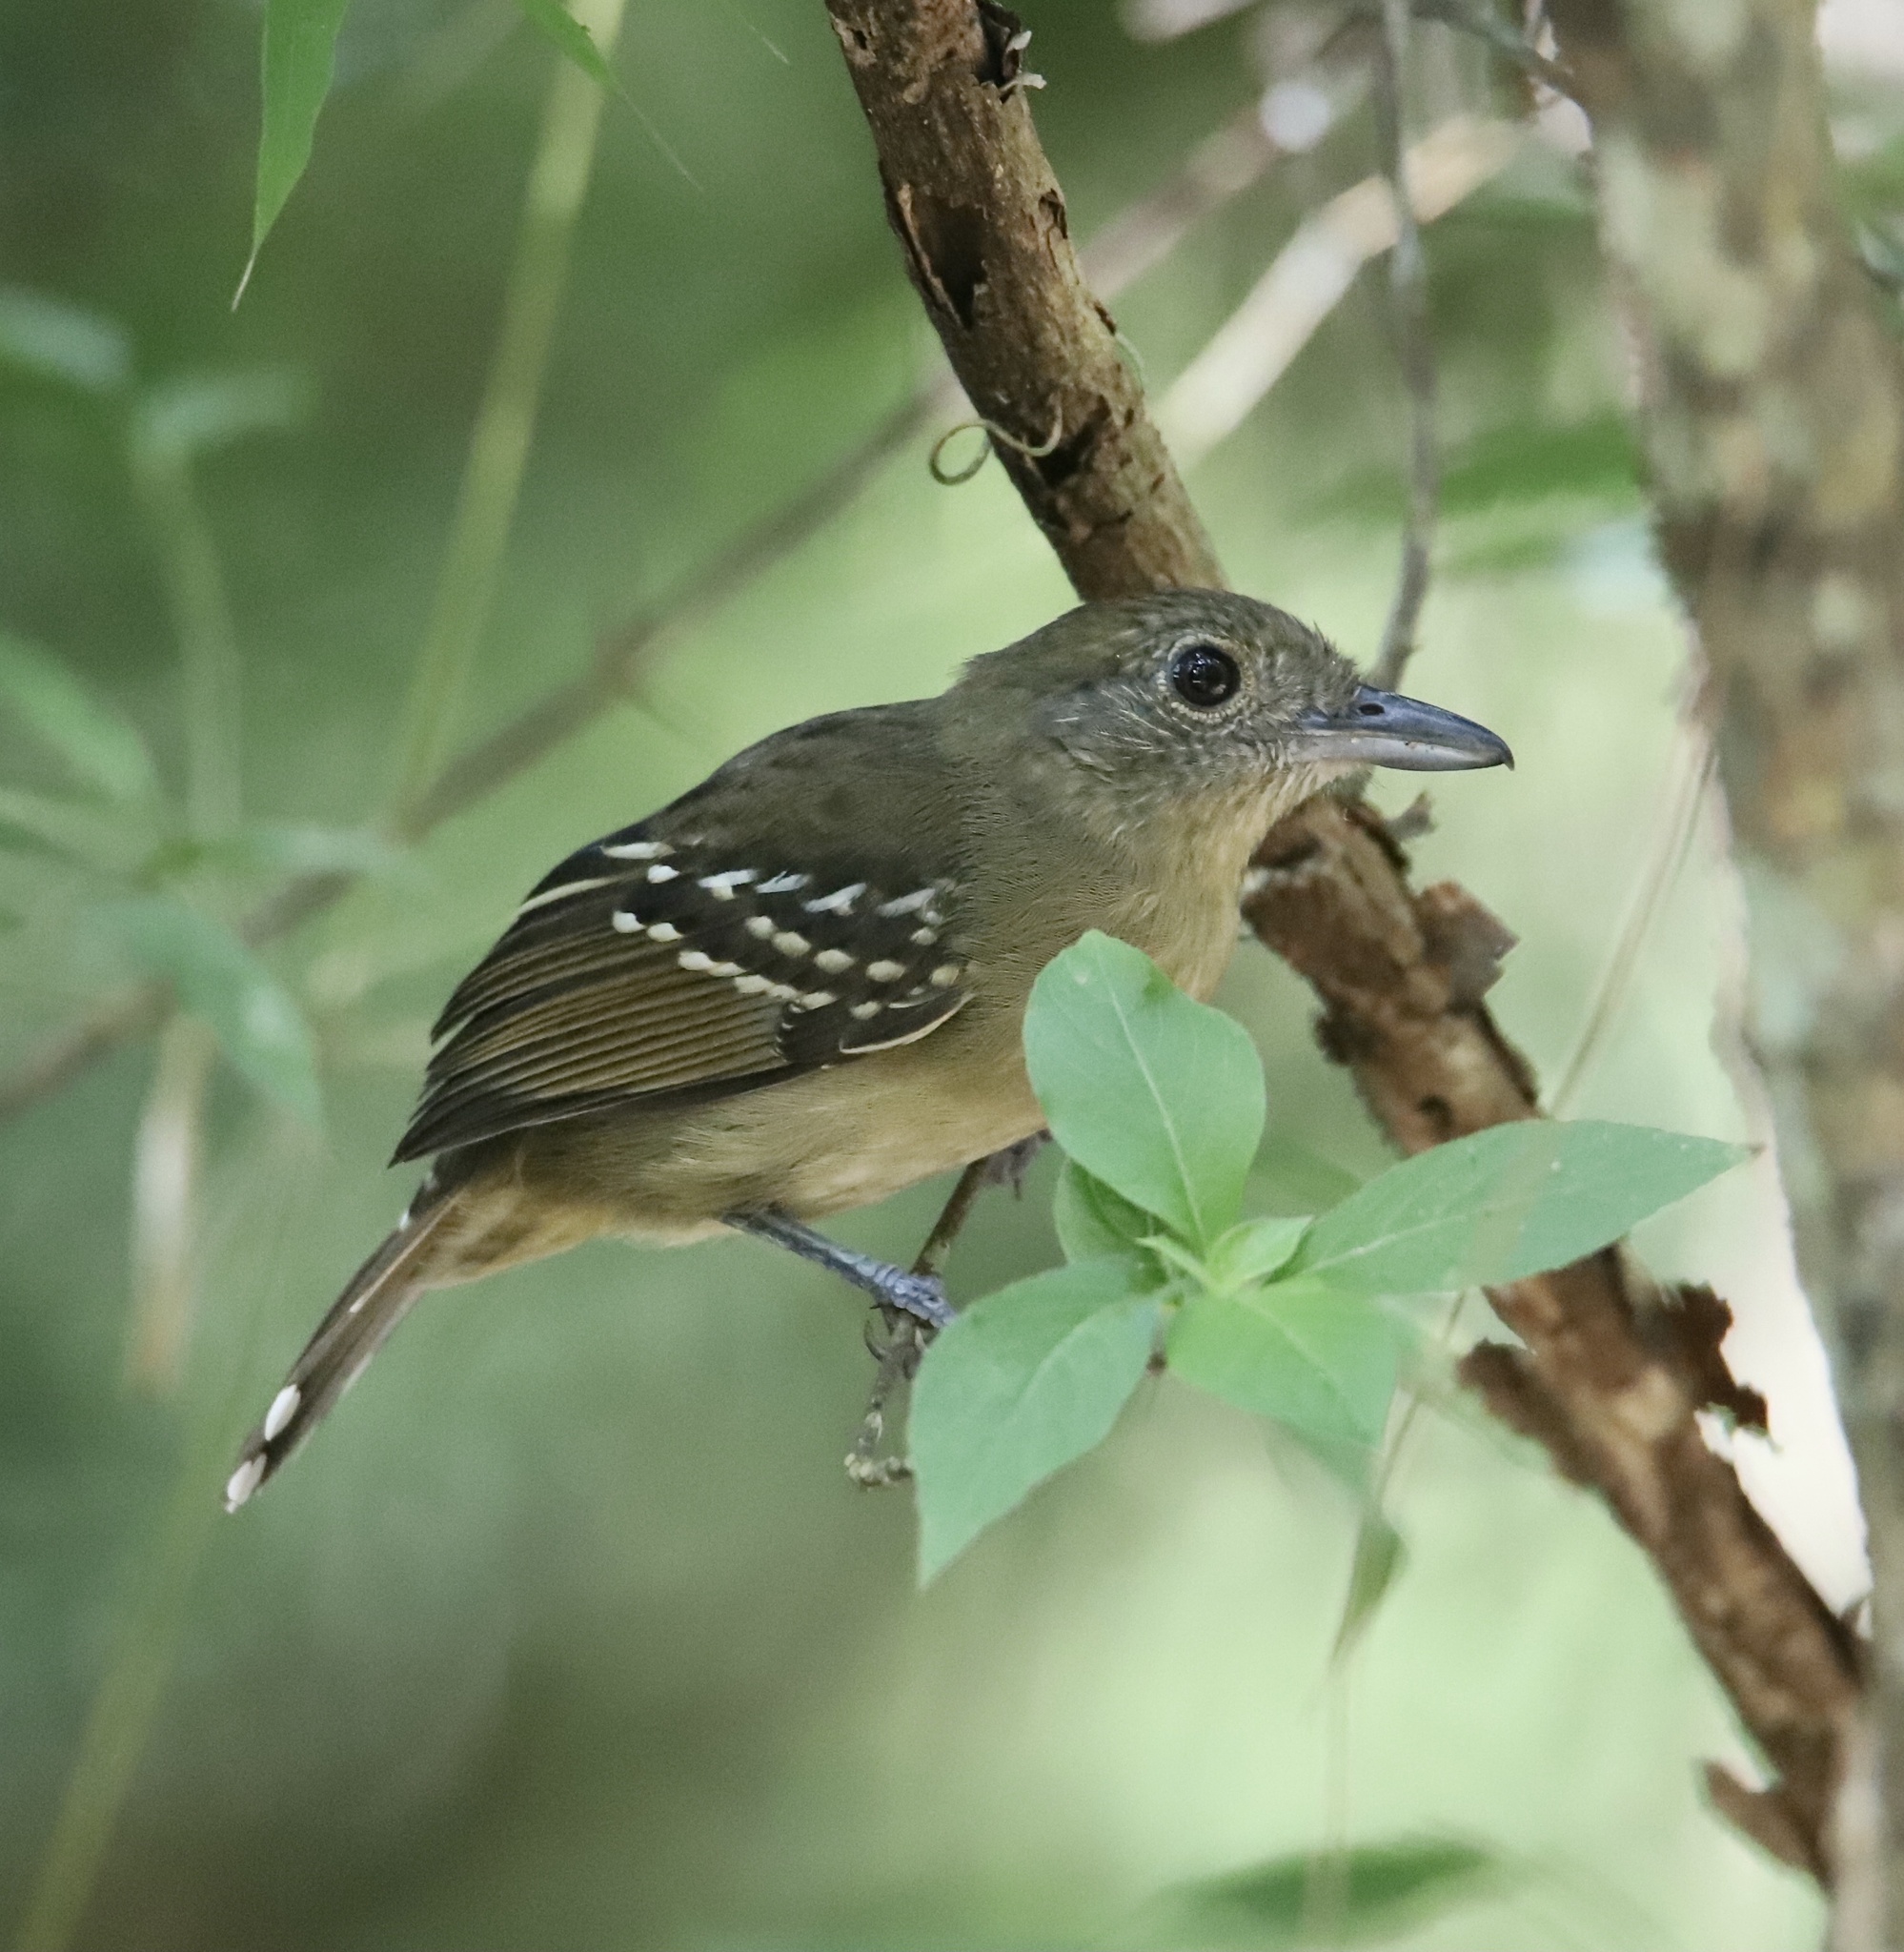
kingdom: Animalia
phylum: Chordata
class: Aves
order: Passeriformes
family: Thamnophilidae
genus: Thamnophilus
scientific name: Thamnophilus atrinucha
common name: Black-crowned antshrike
